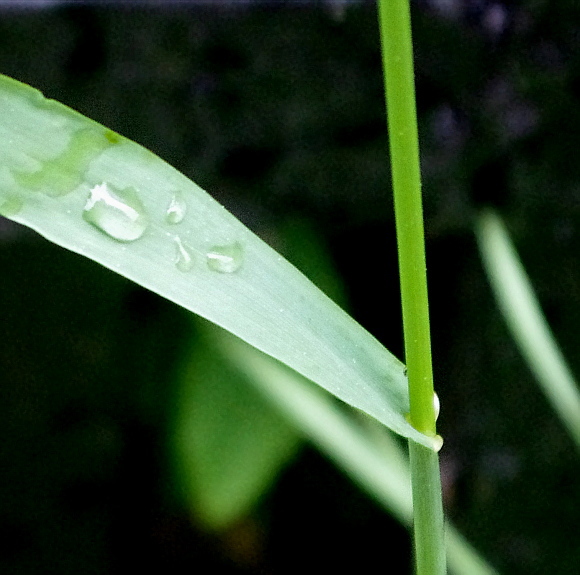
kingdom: Plantae
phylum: Tracheophyta
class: Liliopsida
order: Poales
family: Poaceae
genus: Bromus
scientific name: Bromus inermis
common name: Smooth brome
